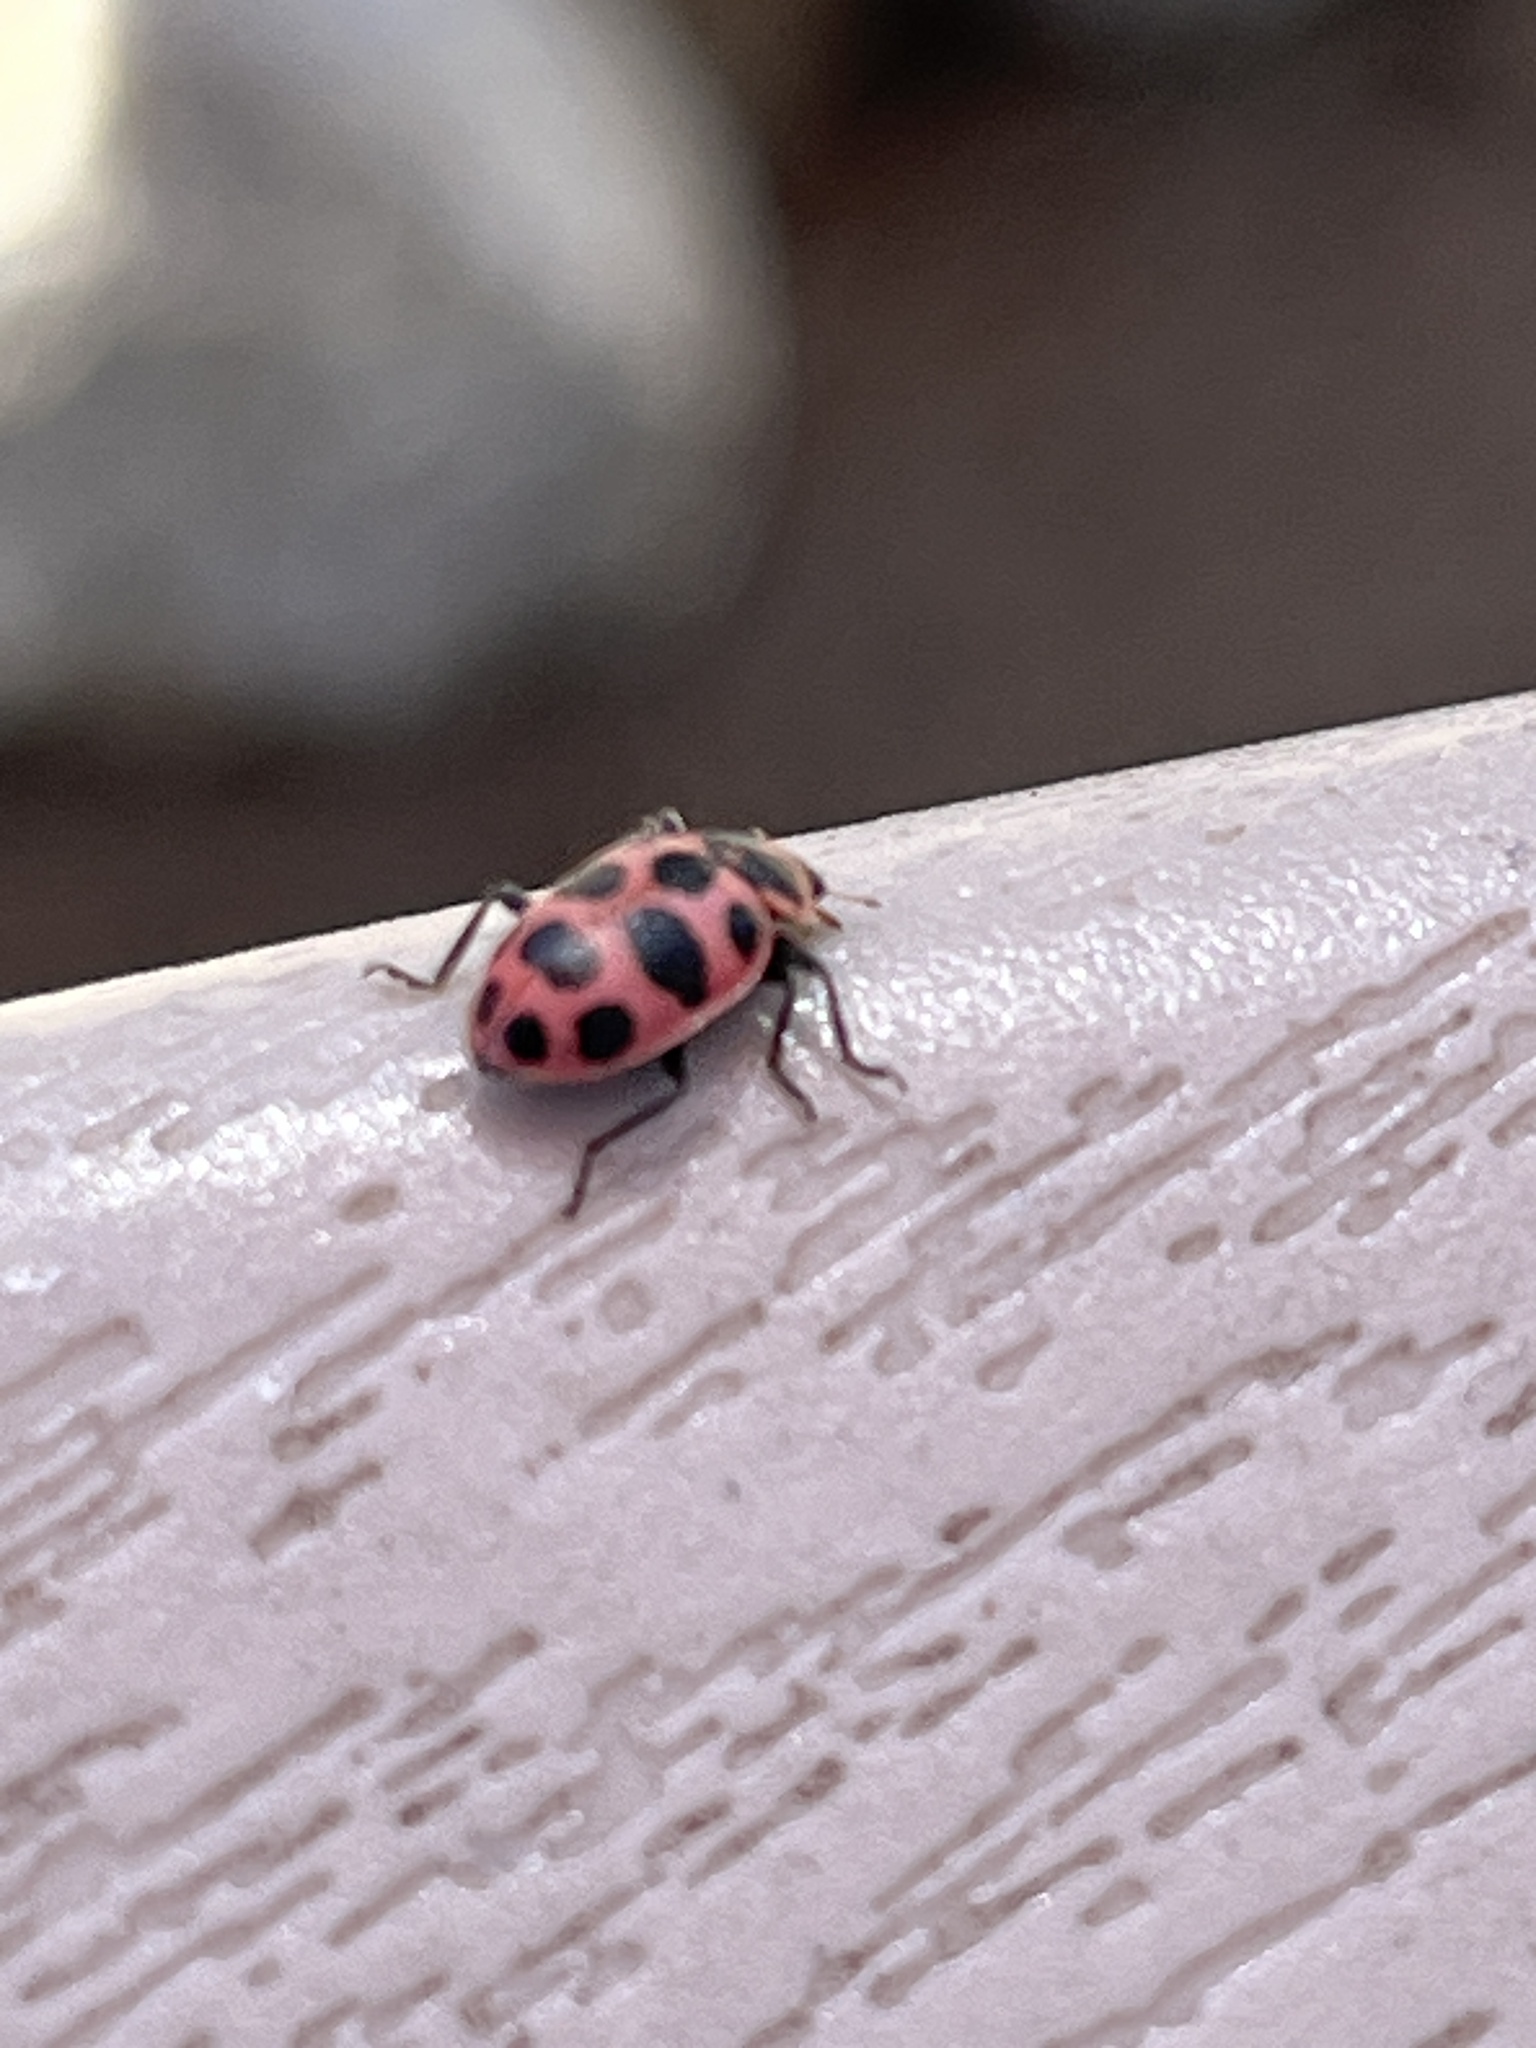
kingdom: Animalia
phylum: Arthropoda
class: Insecta
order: Coleoptera
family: Coccinellidae
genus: Coleomegilla
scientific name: Coleomegilla maculata
